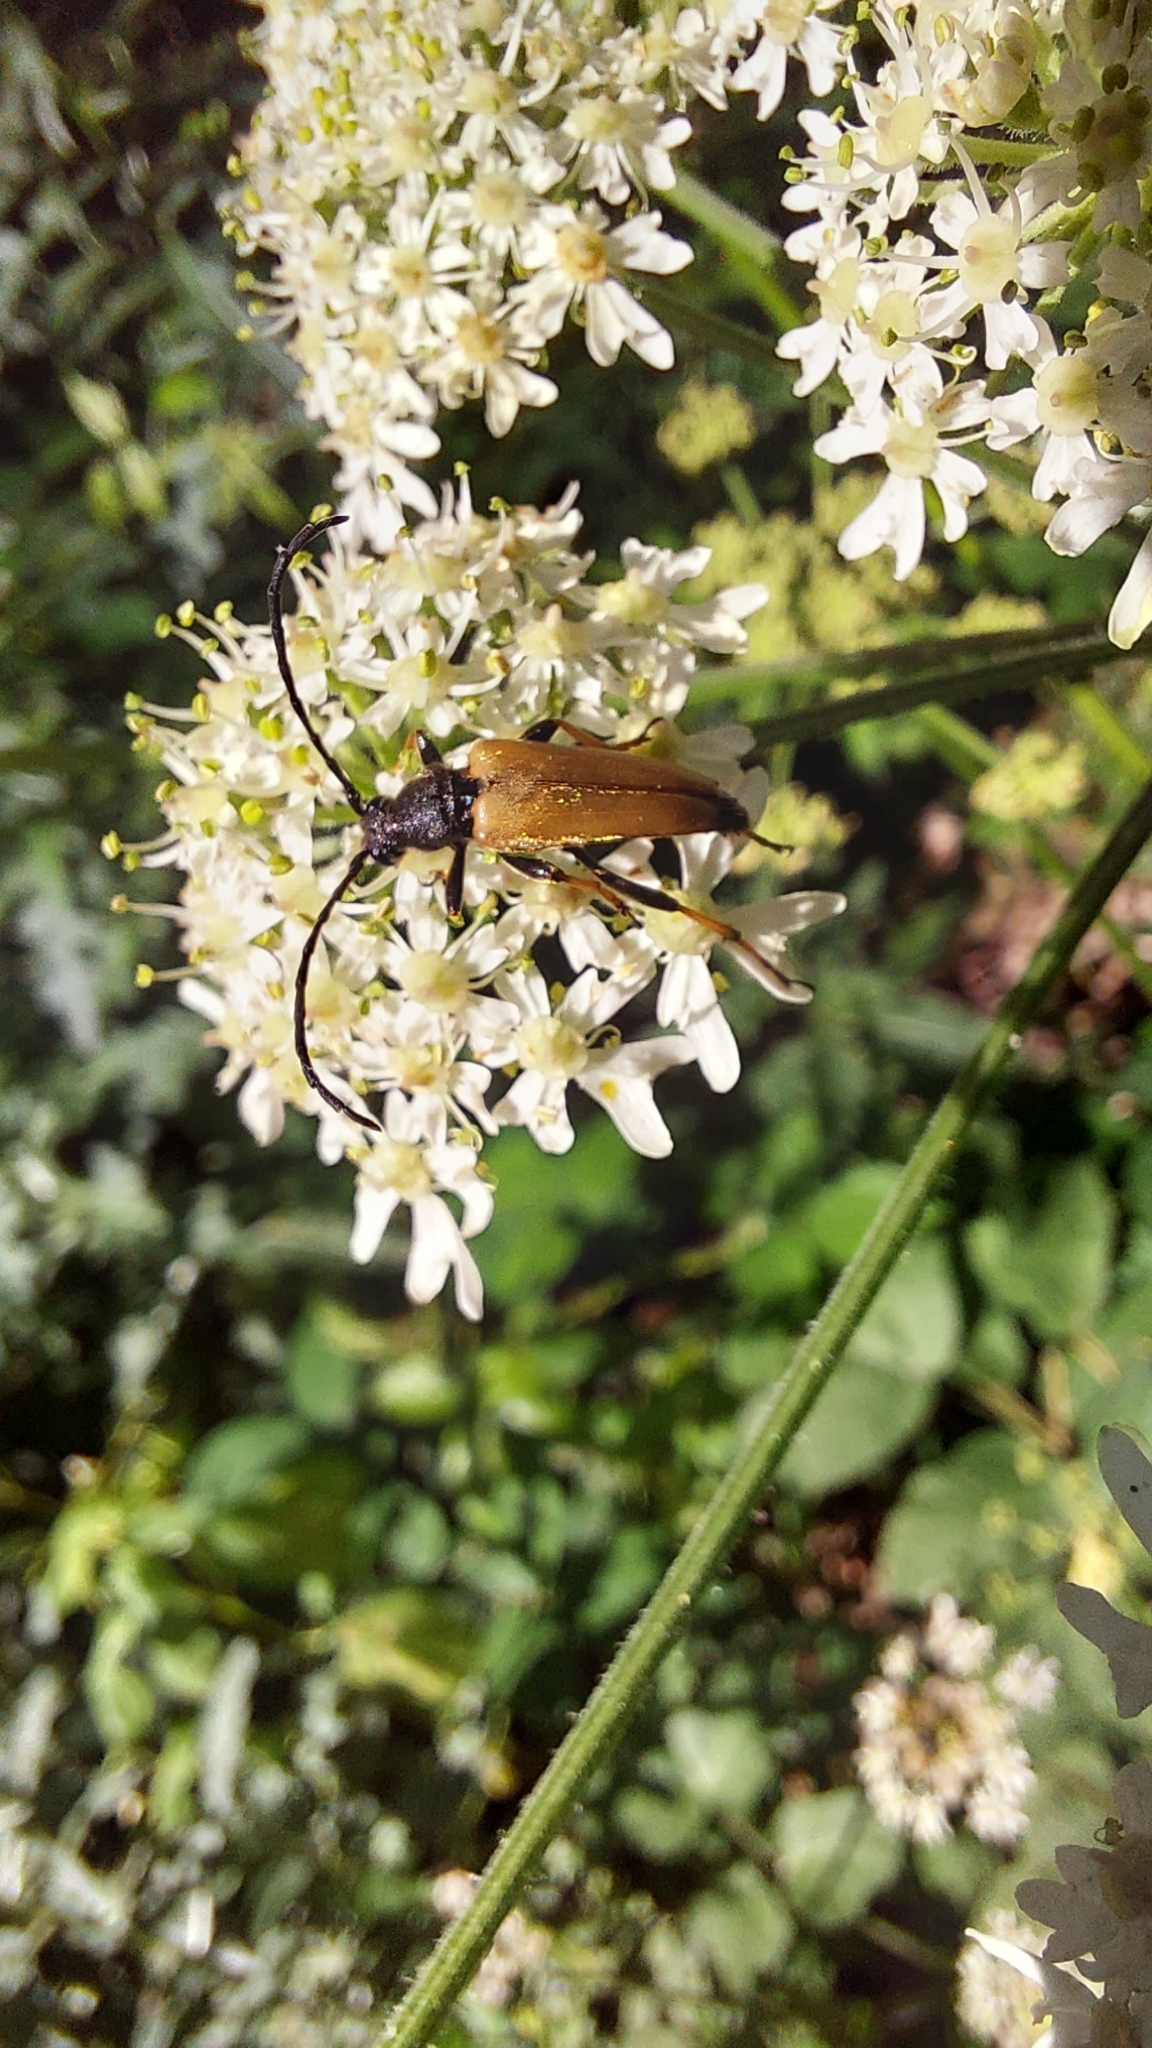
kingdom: Animalia
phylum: Arthropoda
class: Insecta
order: Coleoptera
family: Cerambycidae
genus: Stictoleptura
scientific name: Stictoleptura rubra
